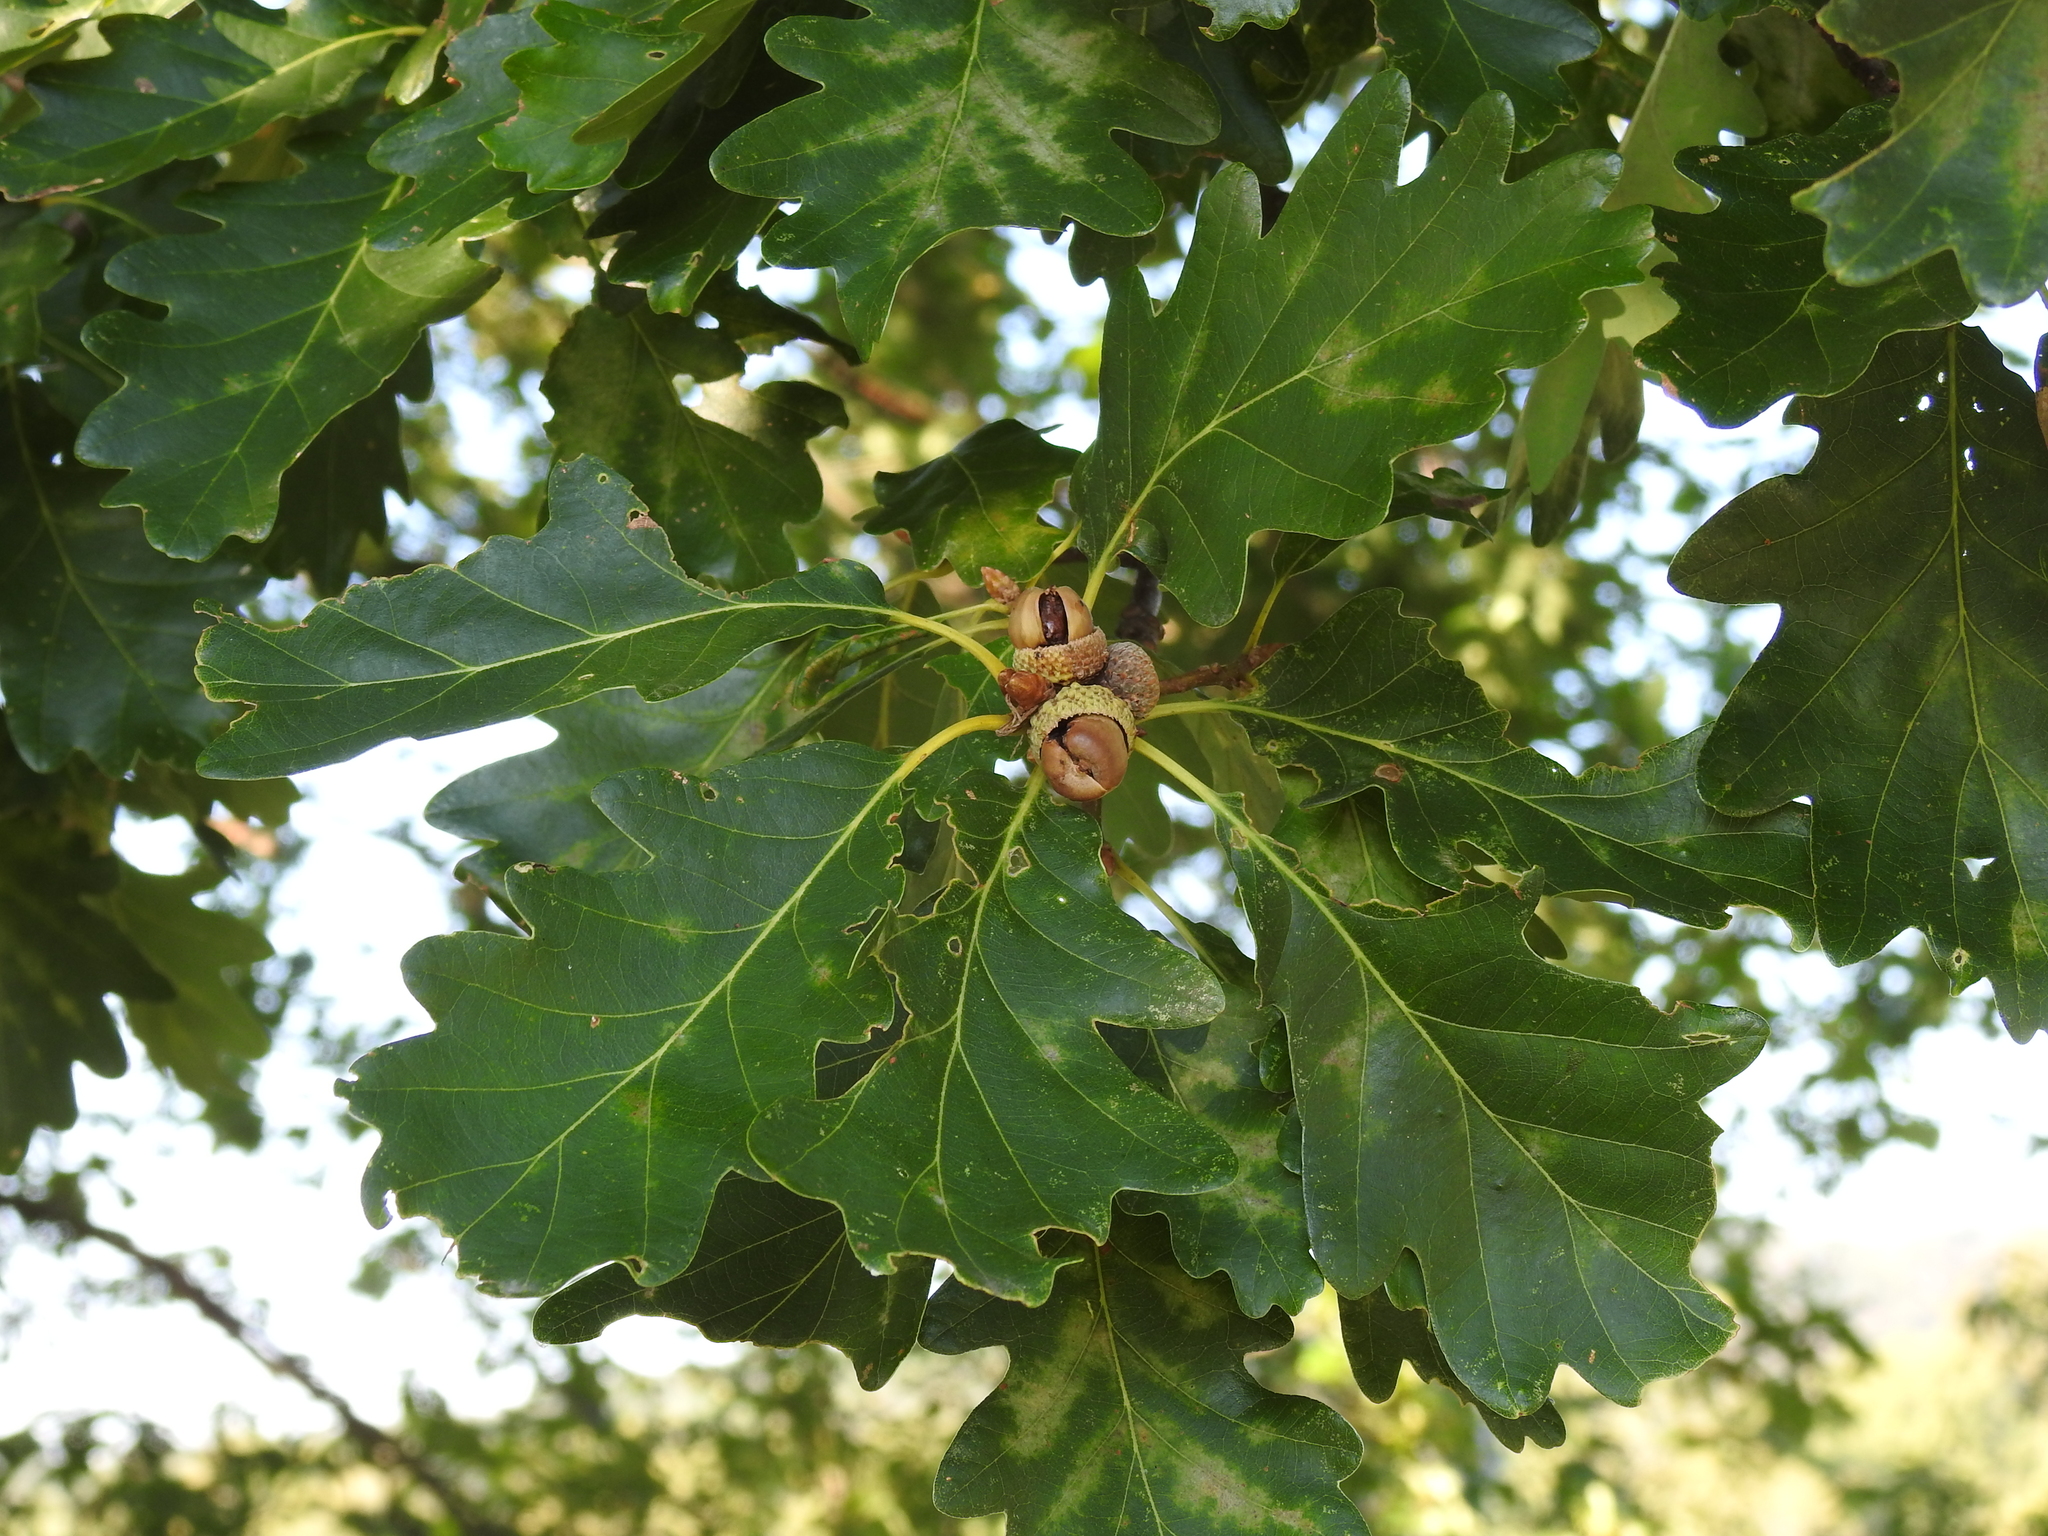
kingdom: Plantae
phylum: Tracheophyta
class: Magnoliopsida
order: Fagales
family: Fagaceae
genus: Quercus
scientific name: Quercus petraea
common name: Sessile oak
